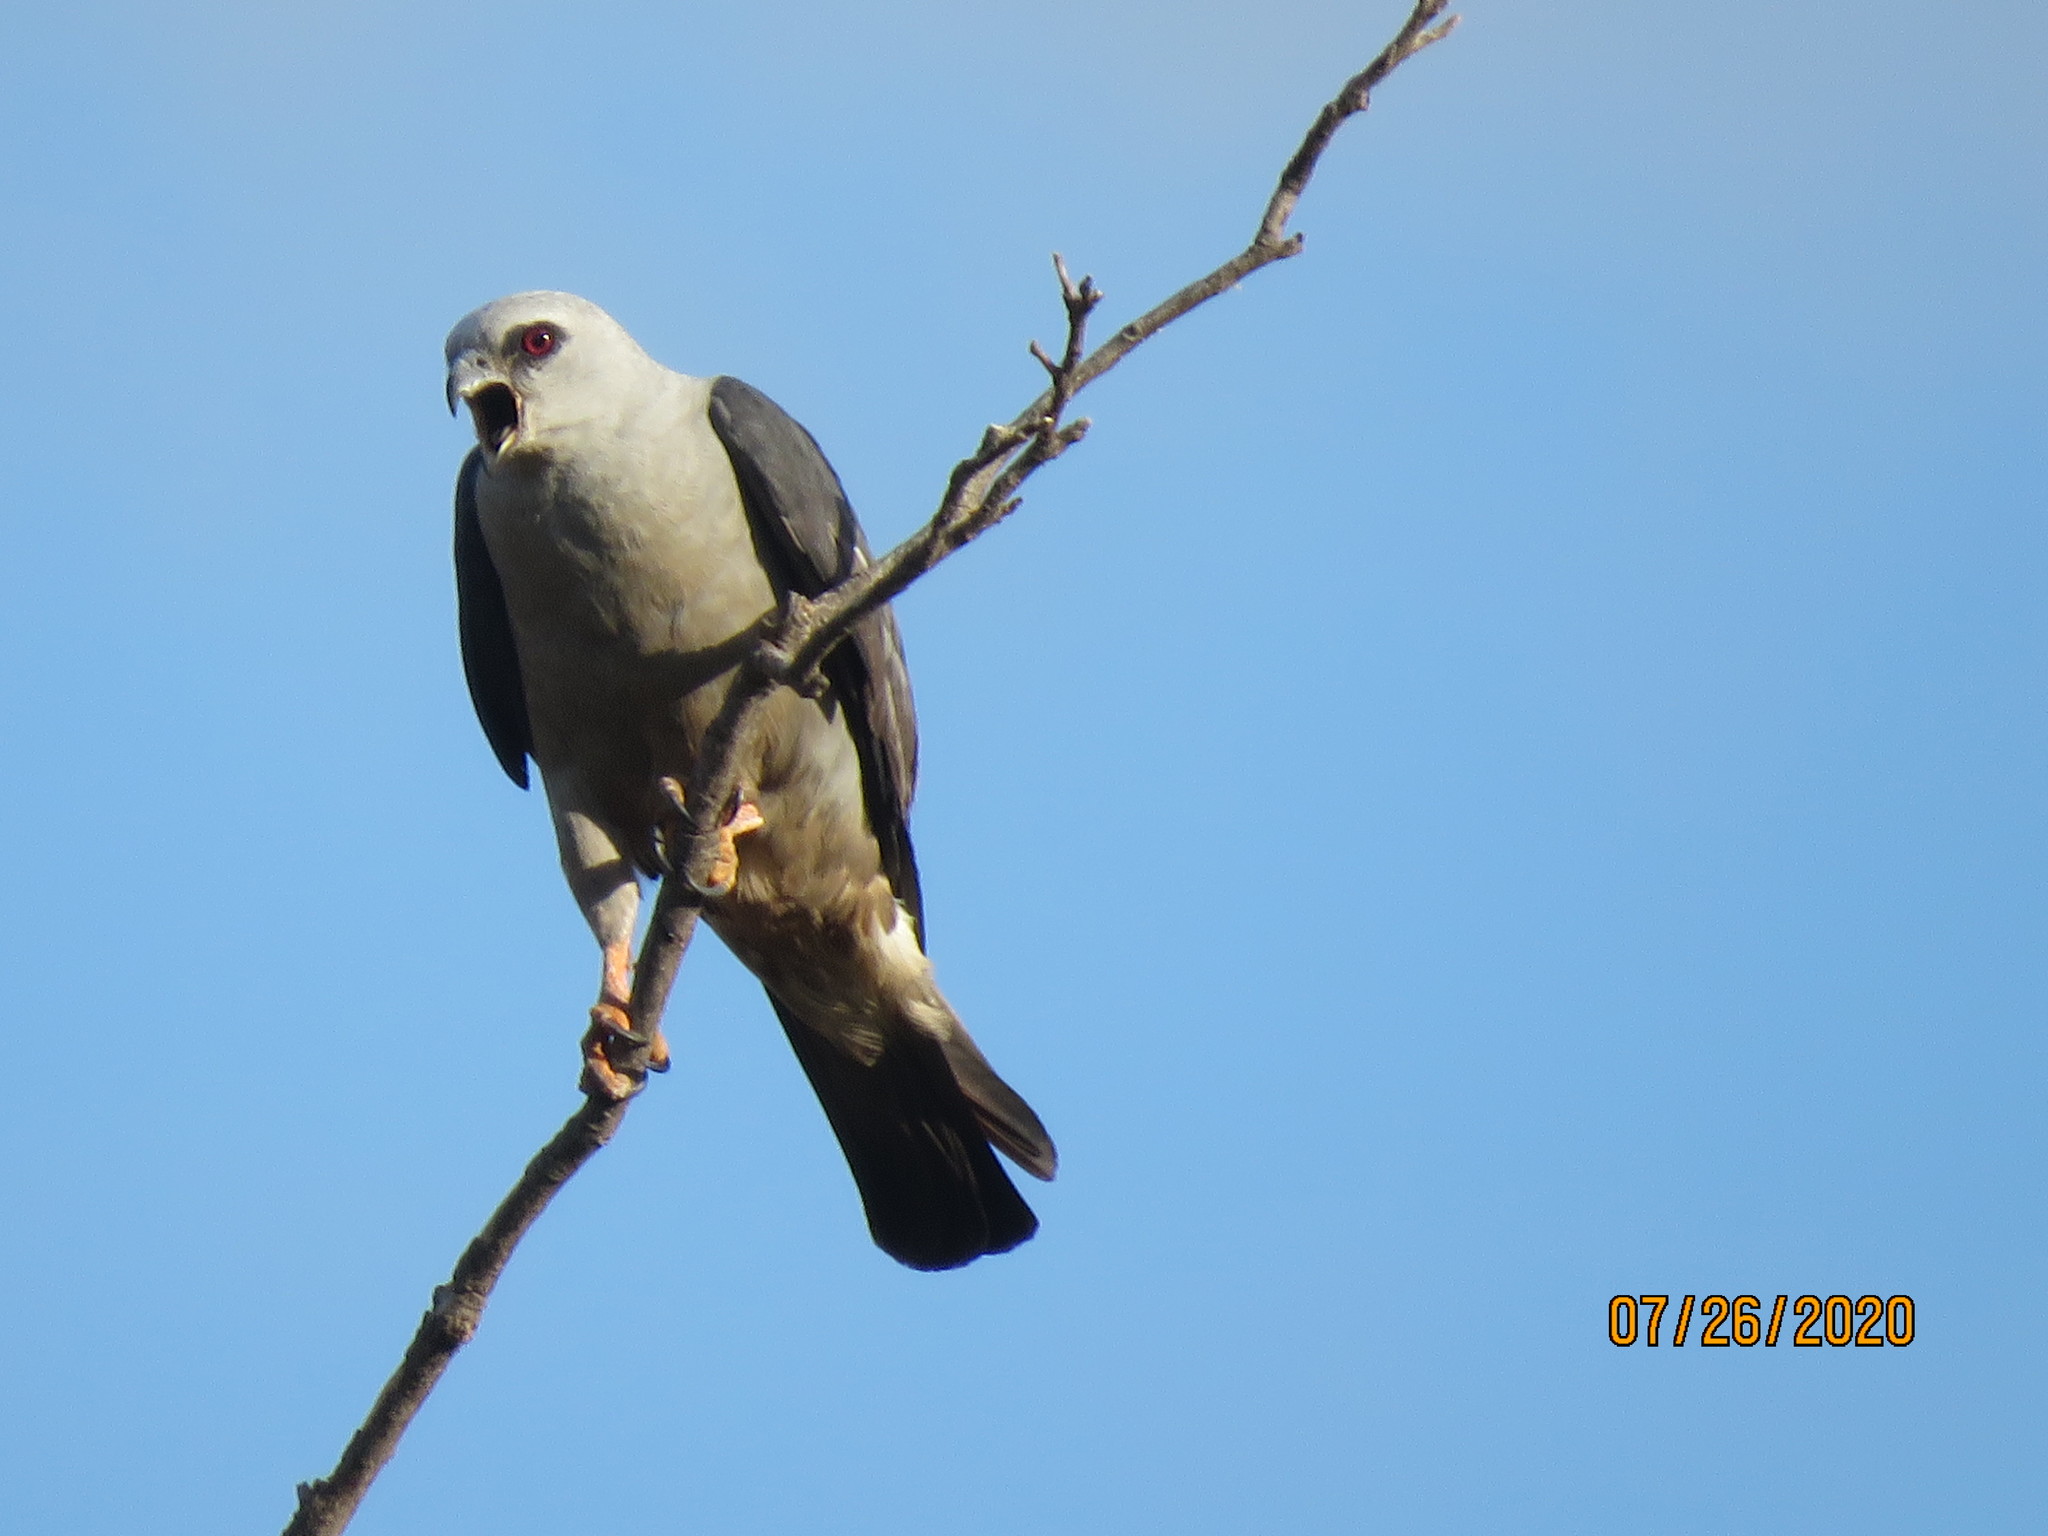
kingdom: Animalia
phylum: Chordata
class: Aves
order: Accipitriformes
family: Accipitridae
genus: Ictinia
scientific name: Ictinia mississippiensis
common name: Mississippi kite
